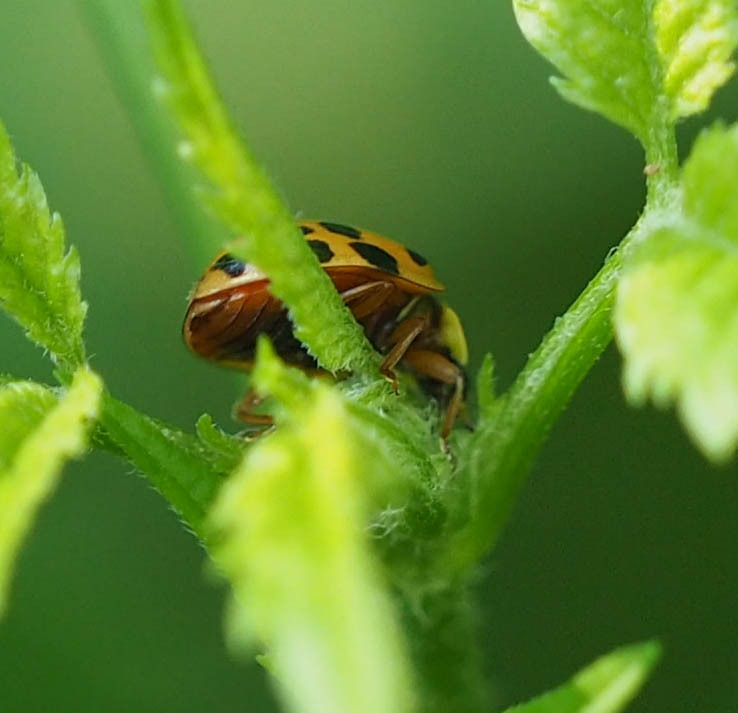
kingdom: Animalia
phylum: Arthropoda
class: Insecta
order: Coleoptera
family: Coccinellidae
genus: Harmonia
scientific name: Harmonia axyridis
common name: Harlequin ladybird
